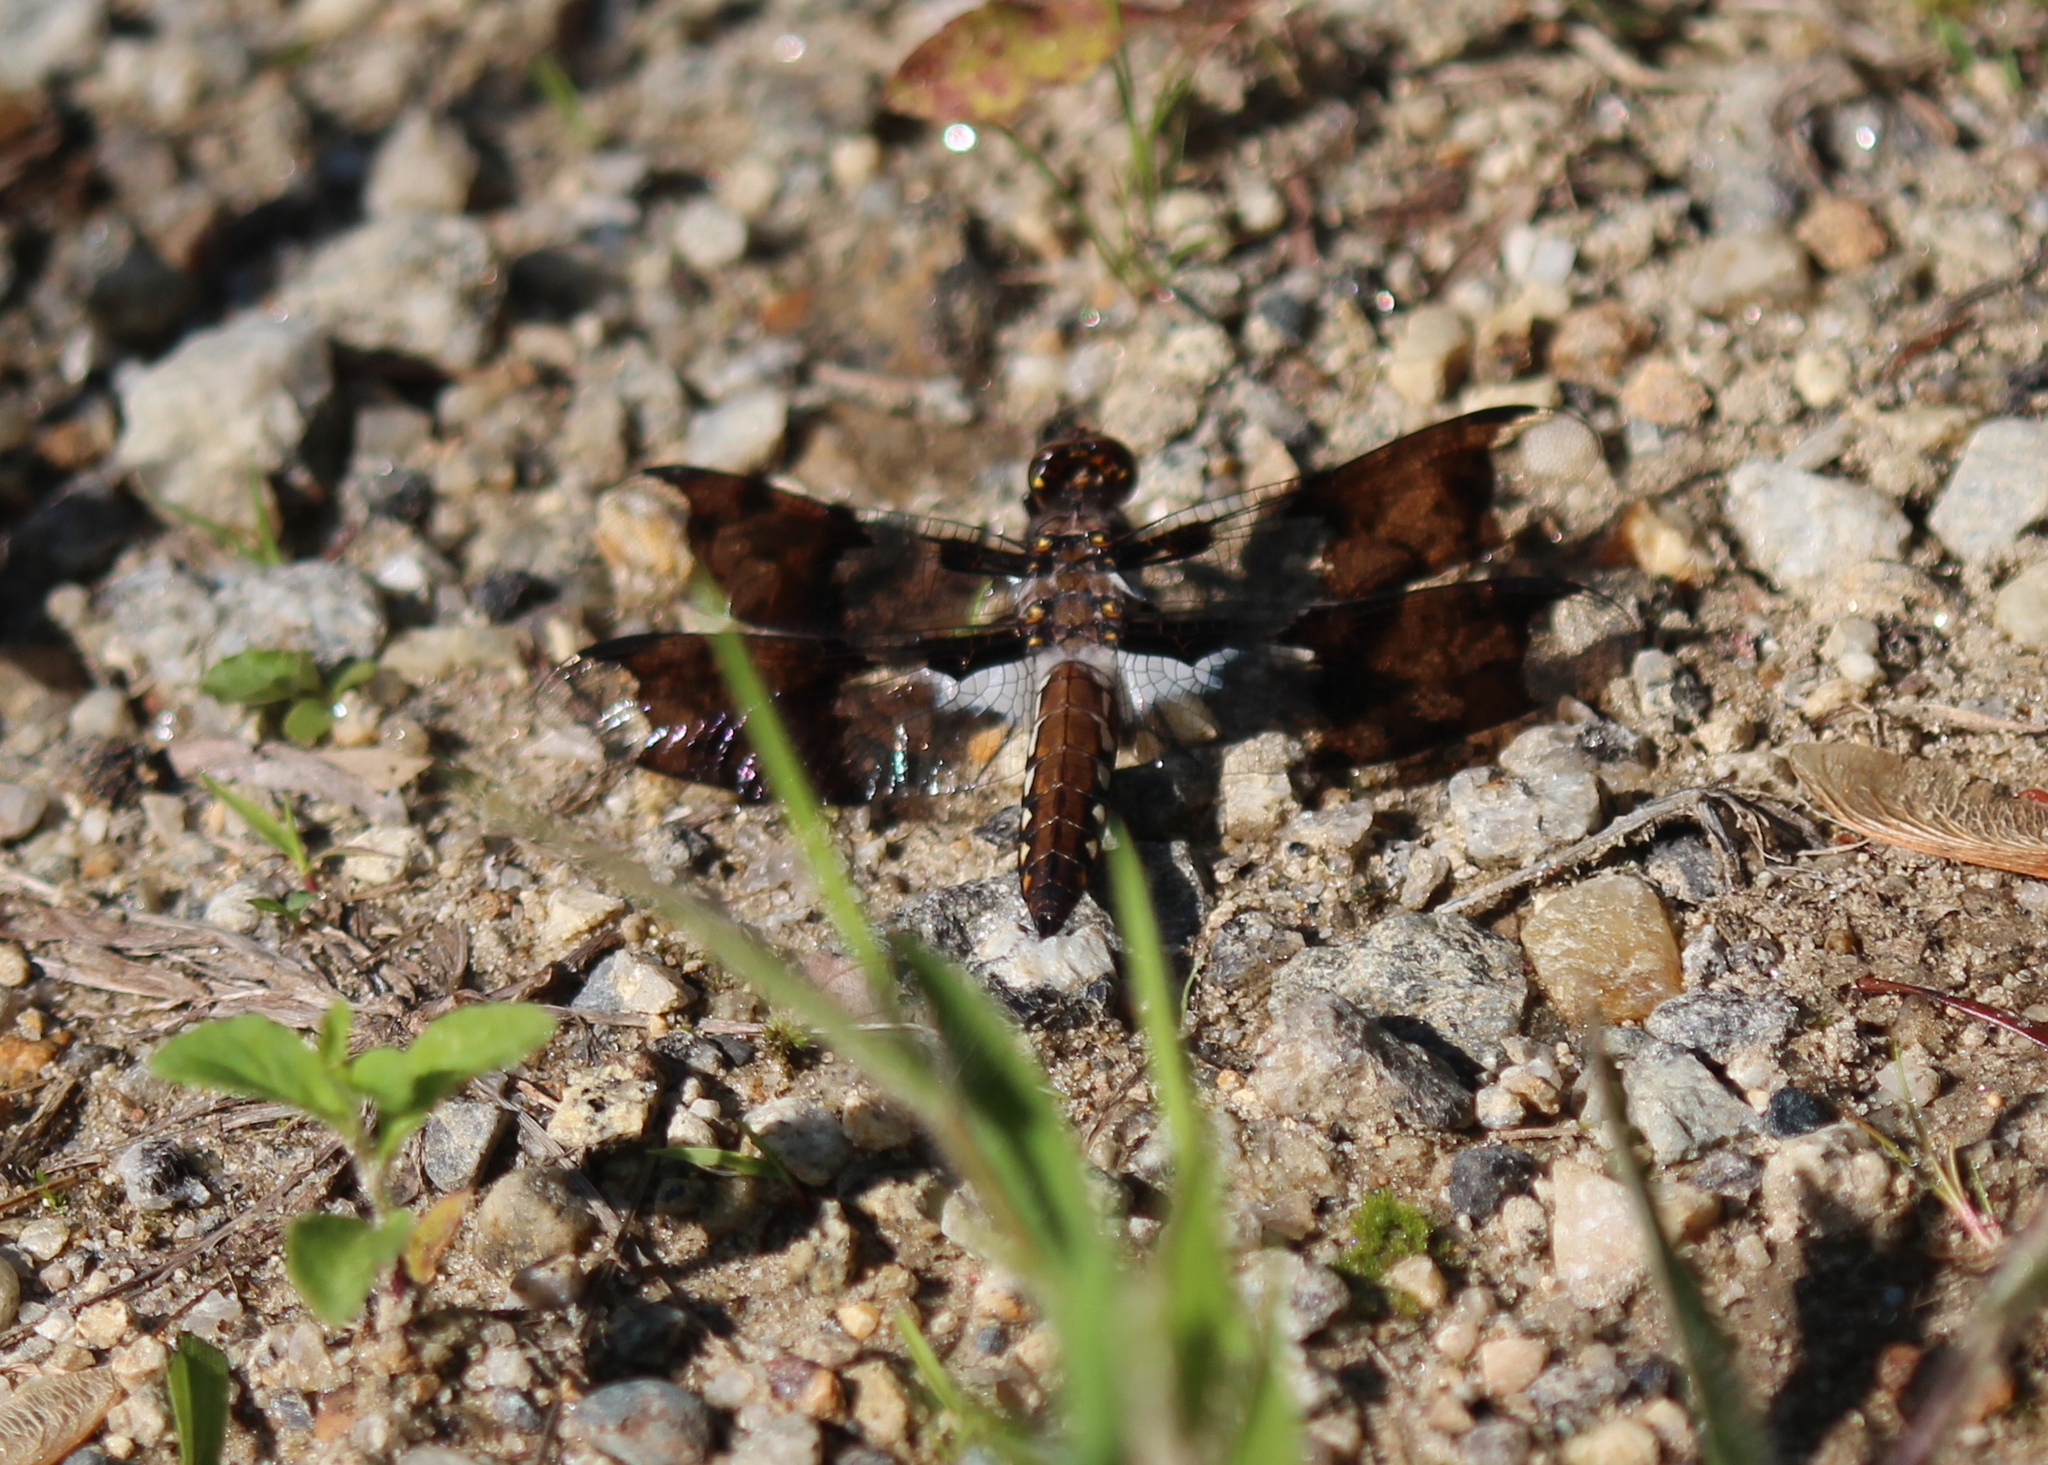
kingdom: Animalia
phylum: Arthropoda
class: Insecta
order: Odonata
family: Libellulidae
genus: Plathemis
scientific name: Plathemis lydia
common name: Common whitetail
